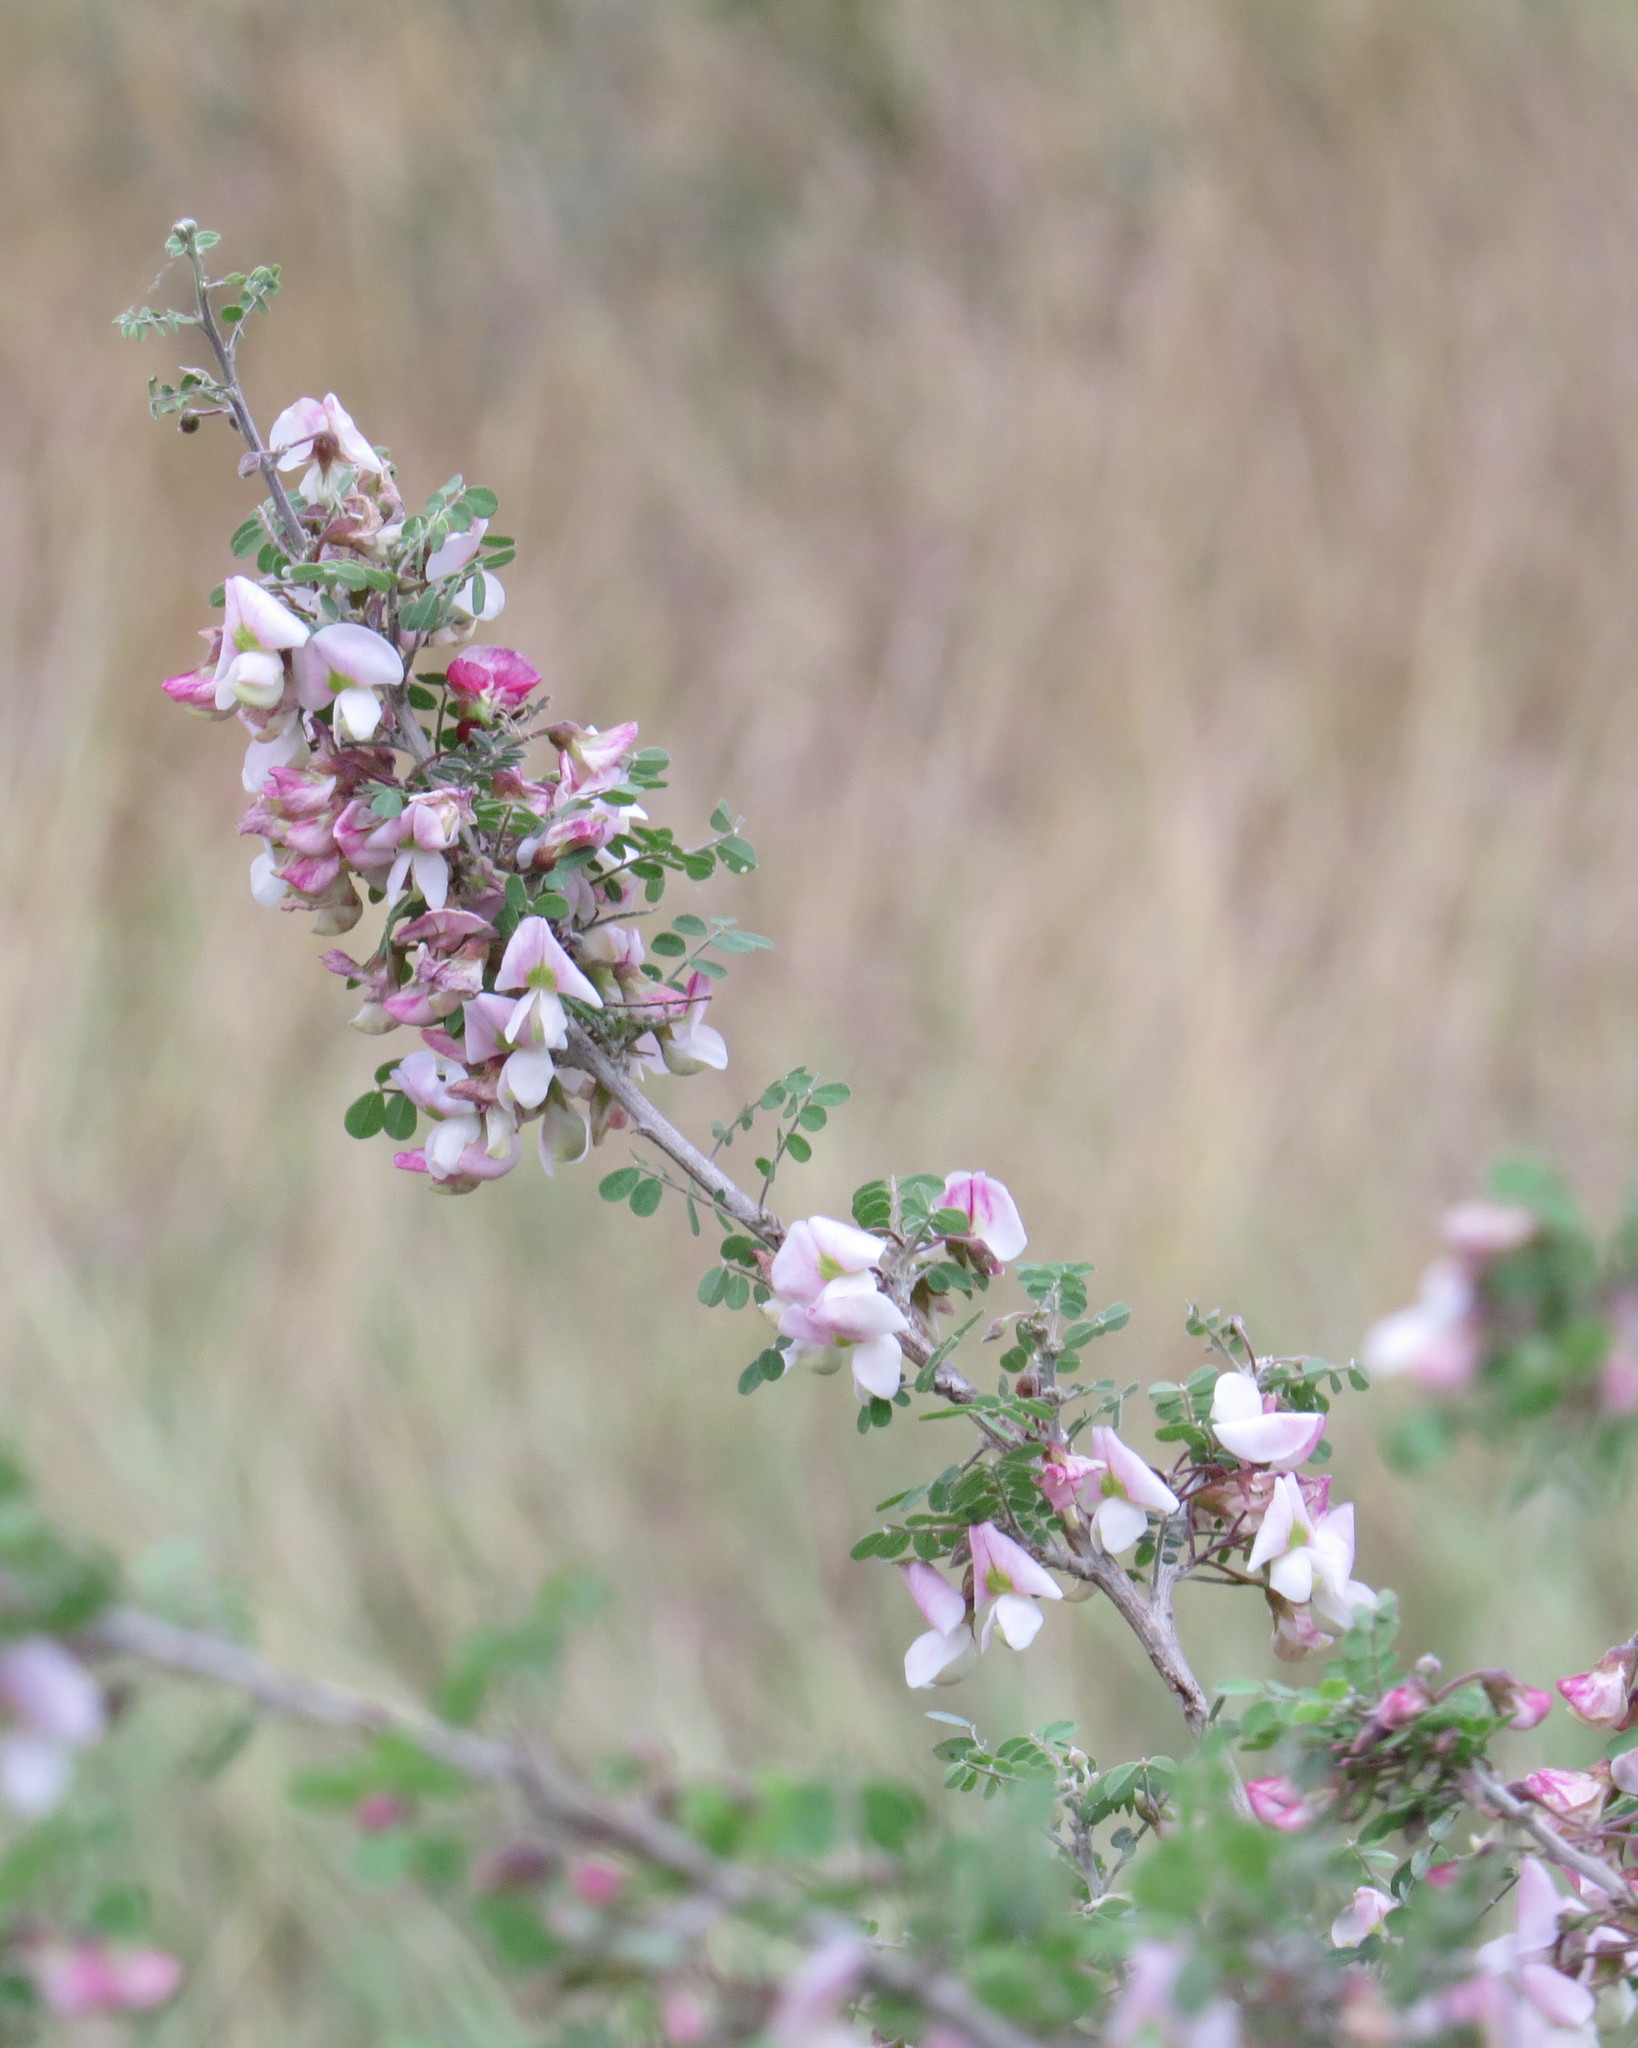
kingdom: Plantae
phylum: Tracheophyta
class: Magnoliopsida
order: Fabales
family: Fabaceae
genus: Coursetia
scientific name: Coursetia axillaris
